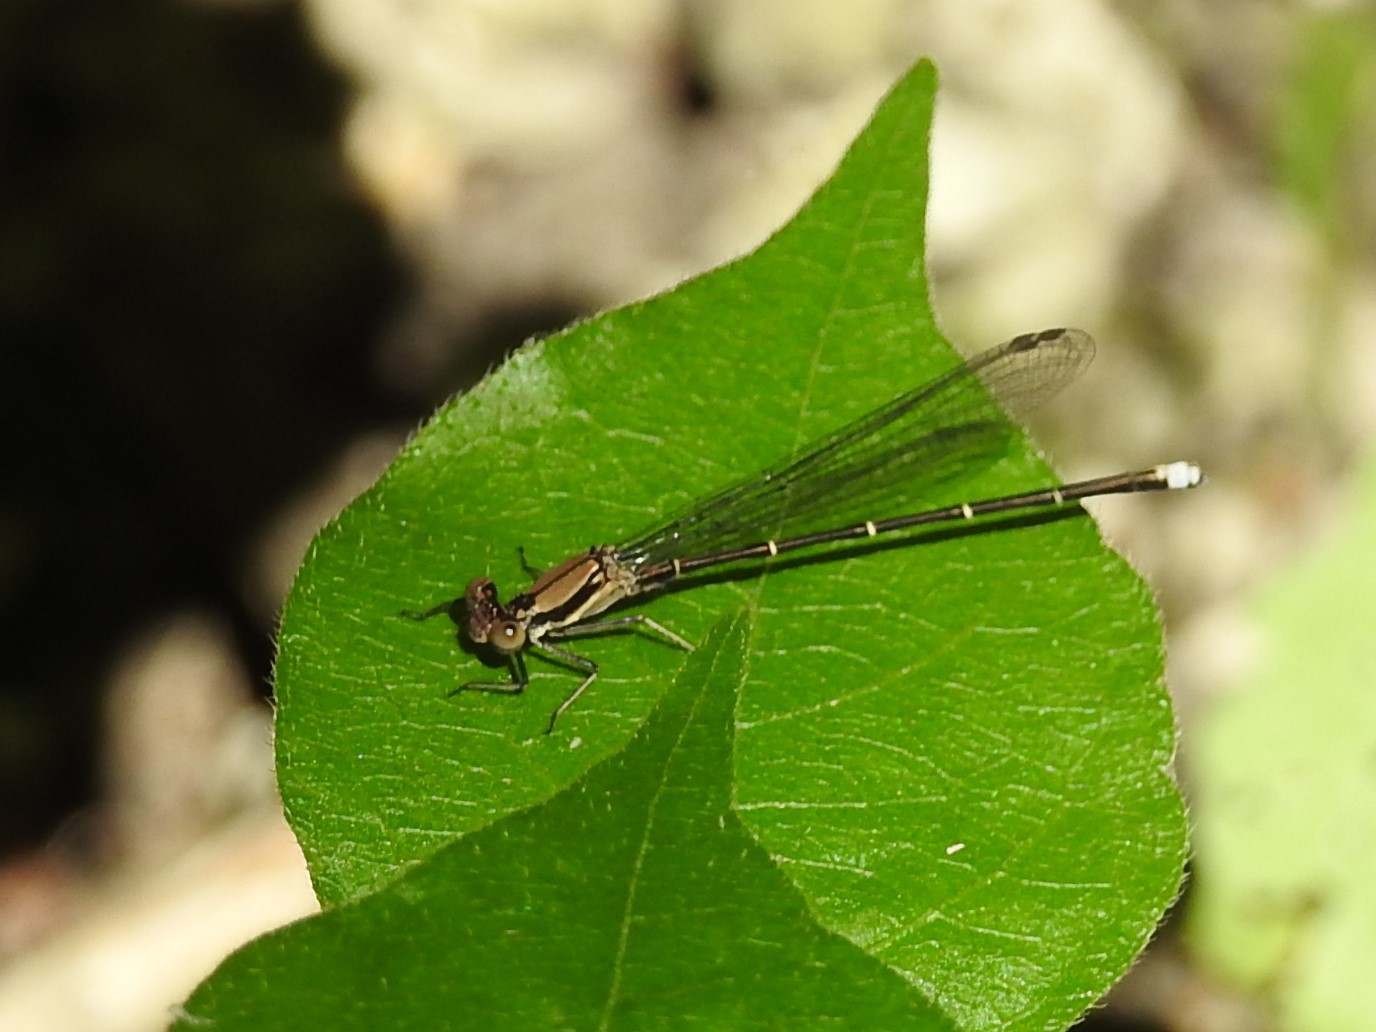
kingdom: Animalia
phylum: Arthropoda
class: Insecta
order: Odonata
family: Coenagrionidae
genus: Argia
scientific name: Argia tibialis
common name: Blue-tipped dancer
